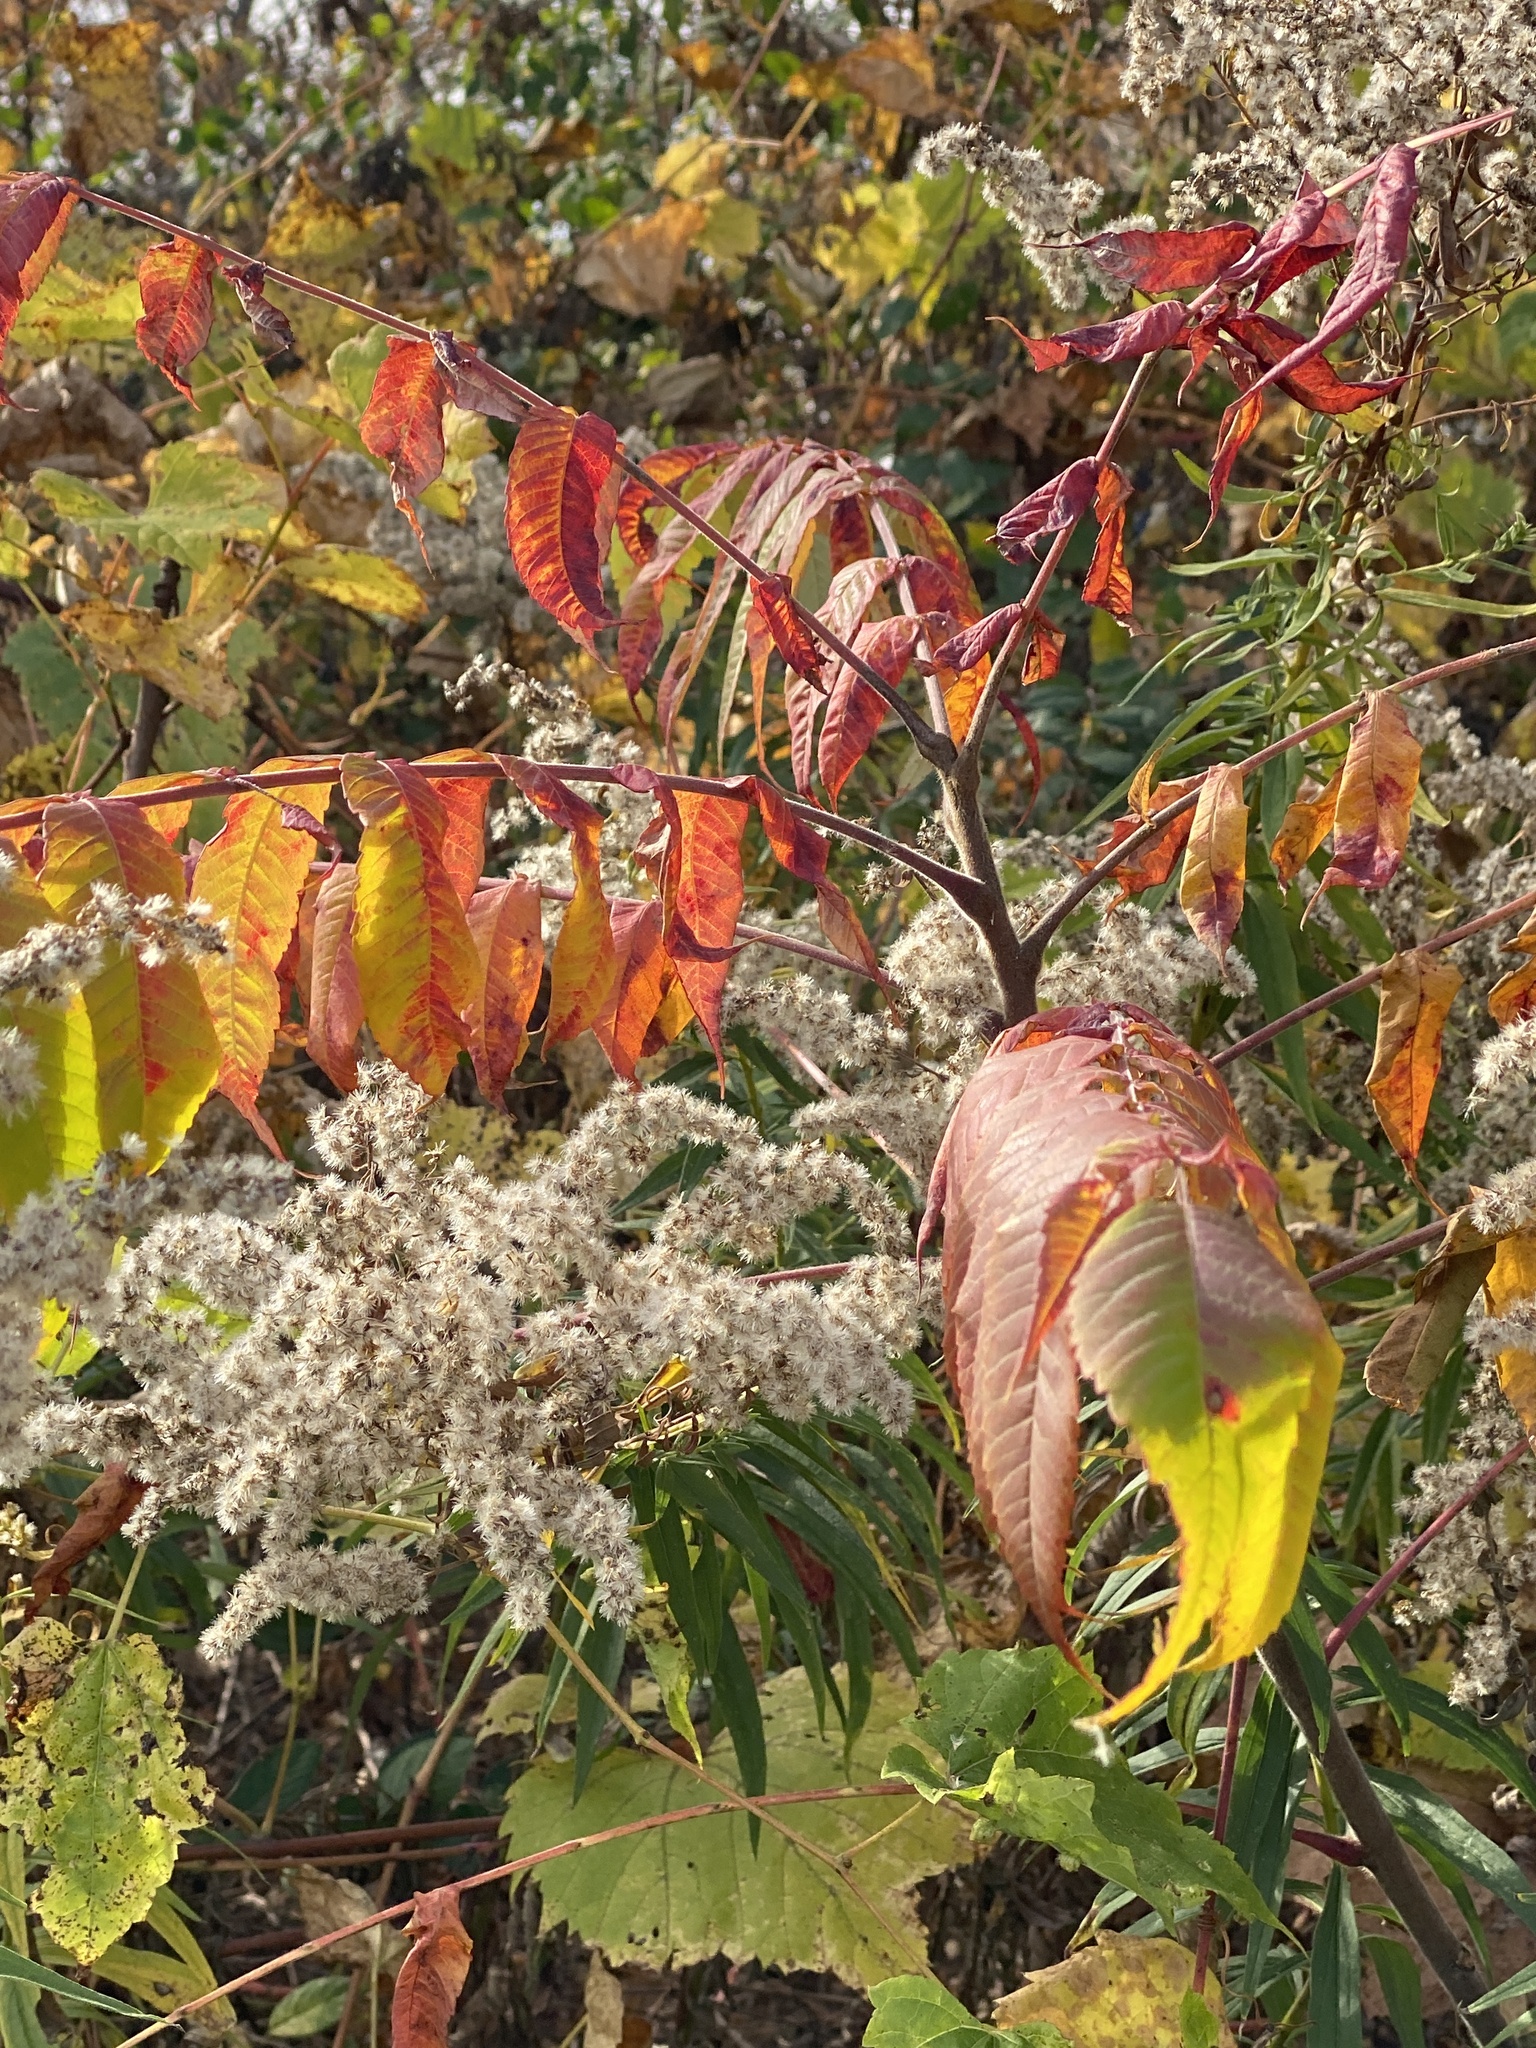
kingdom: Plantae
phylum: Tracheophyta
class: Magnoliopsida
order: Sapindales
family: Anacardiaceae
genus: Rhus
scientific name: Rhus typhina
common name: Staghorn sumac
